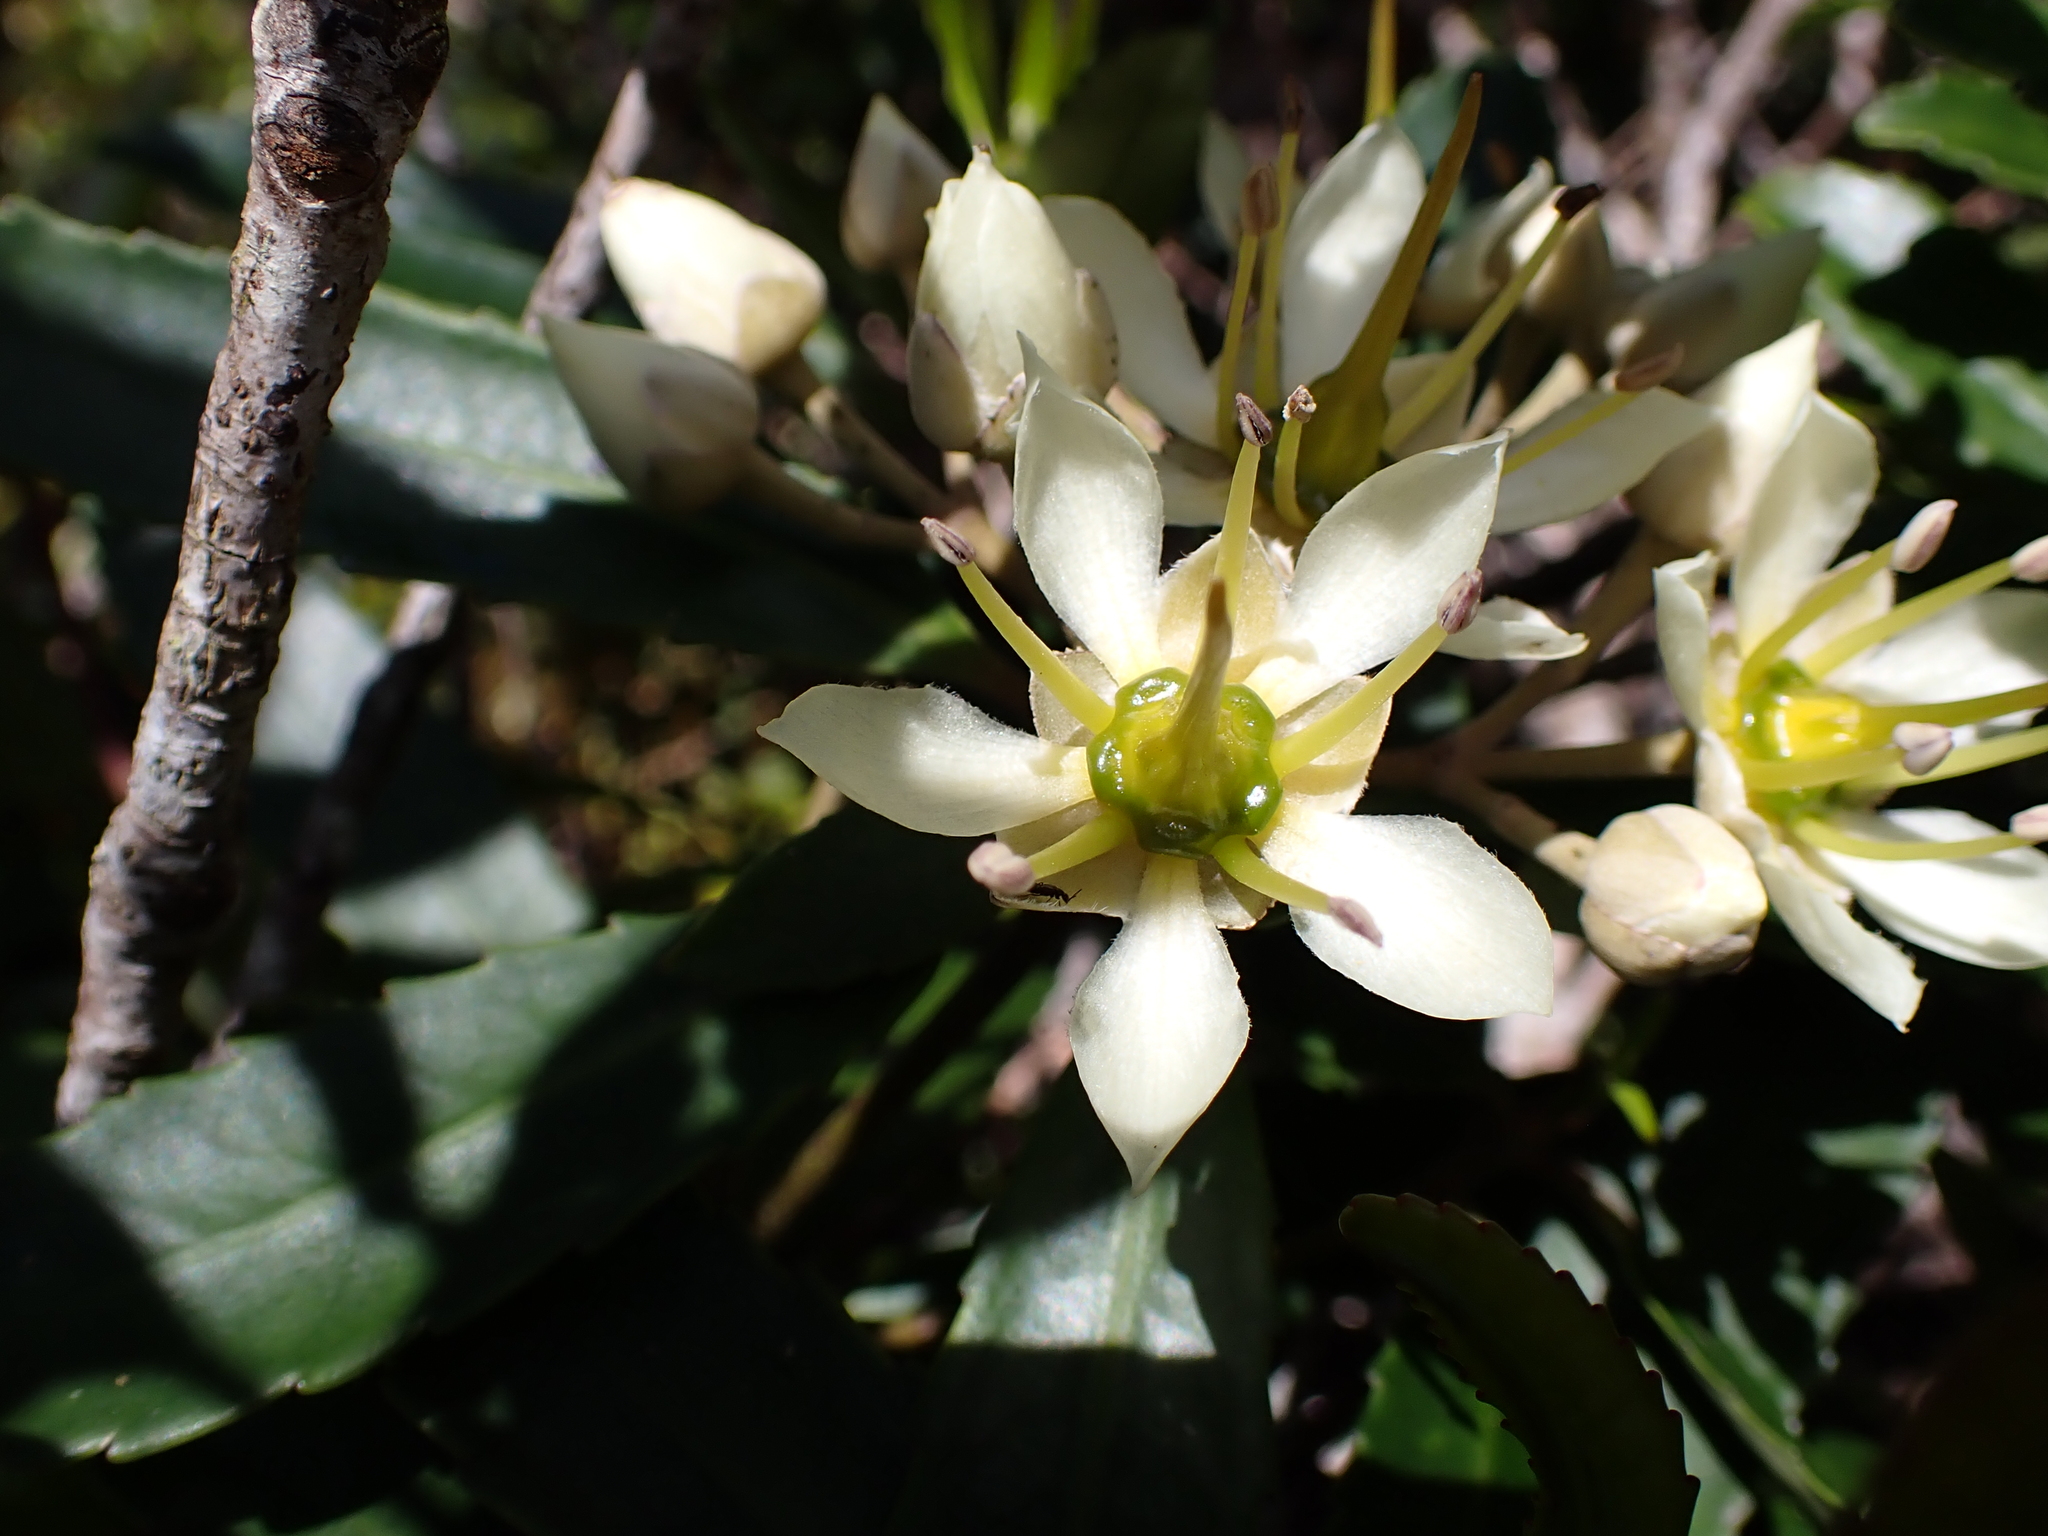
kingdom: Plantae
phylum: Tracheophyta
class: Magnoliopsida
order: Crossosomatales
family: Ixerbaceae
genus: Ixerba
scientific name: Ixerba brexioides
